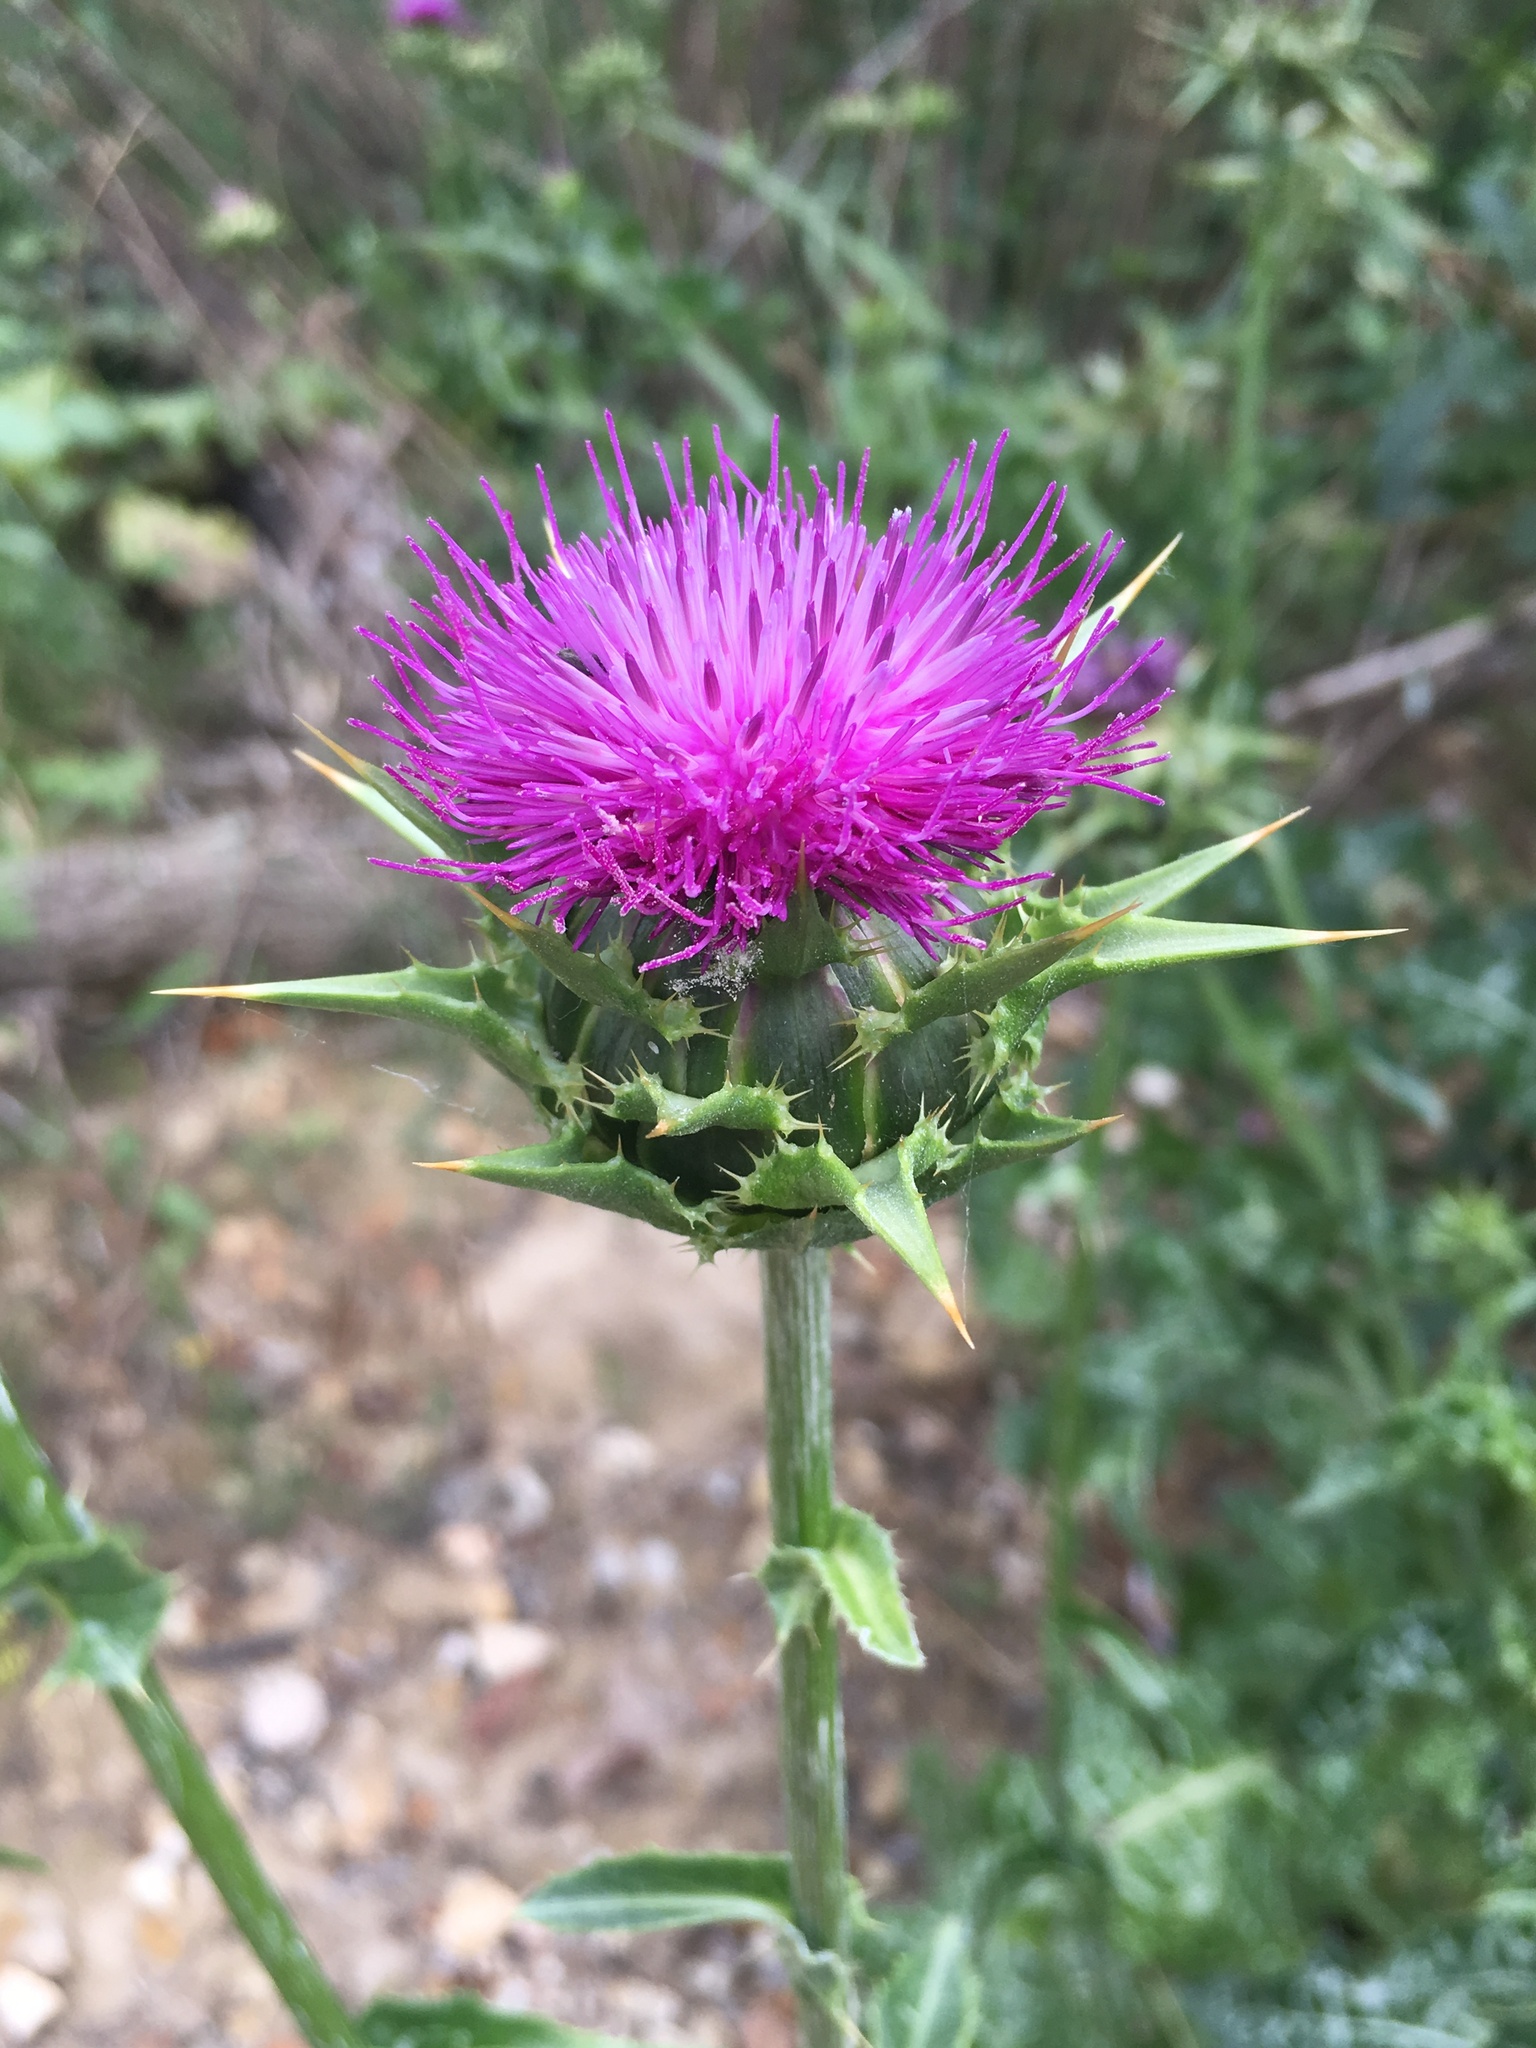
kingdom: Plantae
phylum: Tracheophyta
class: Magnoliopsida
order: Asterales
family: Asteraceae
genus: Silybum
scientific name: Silybum marianum
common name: Milk thistle
